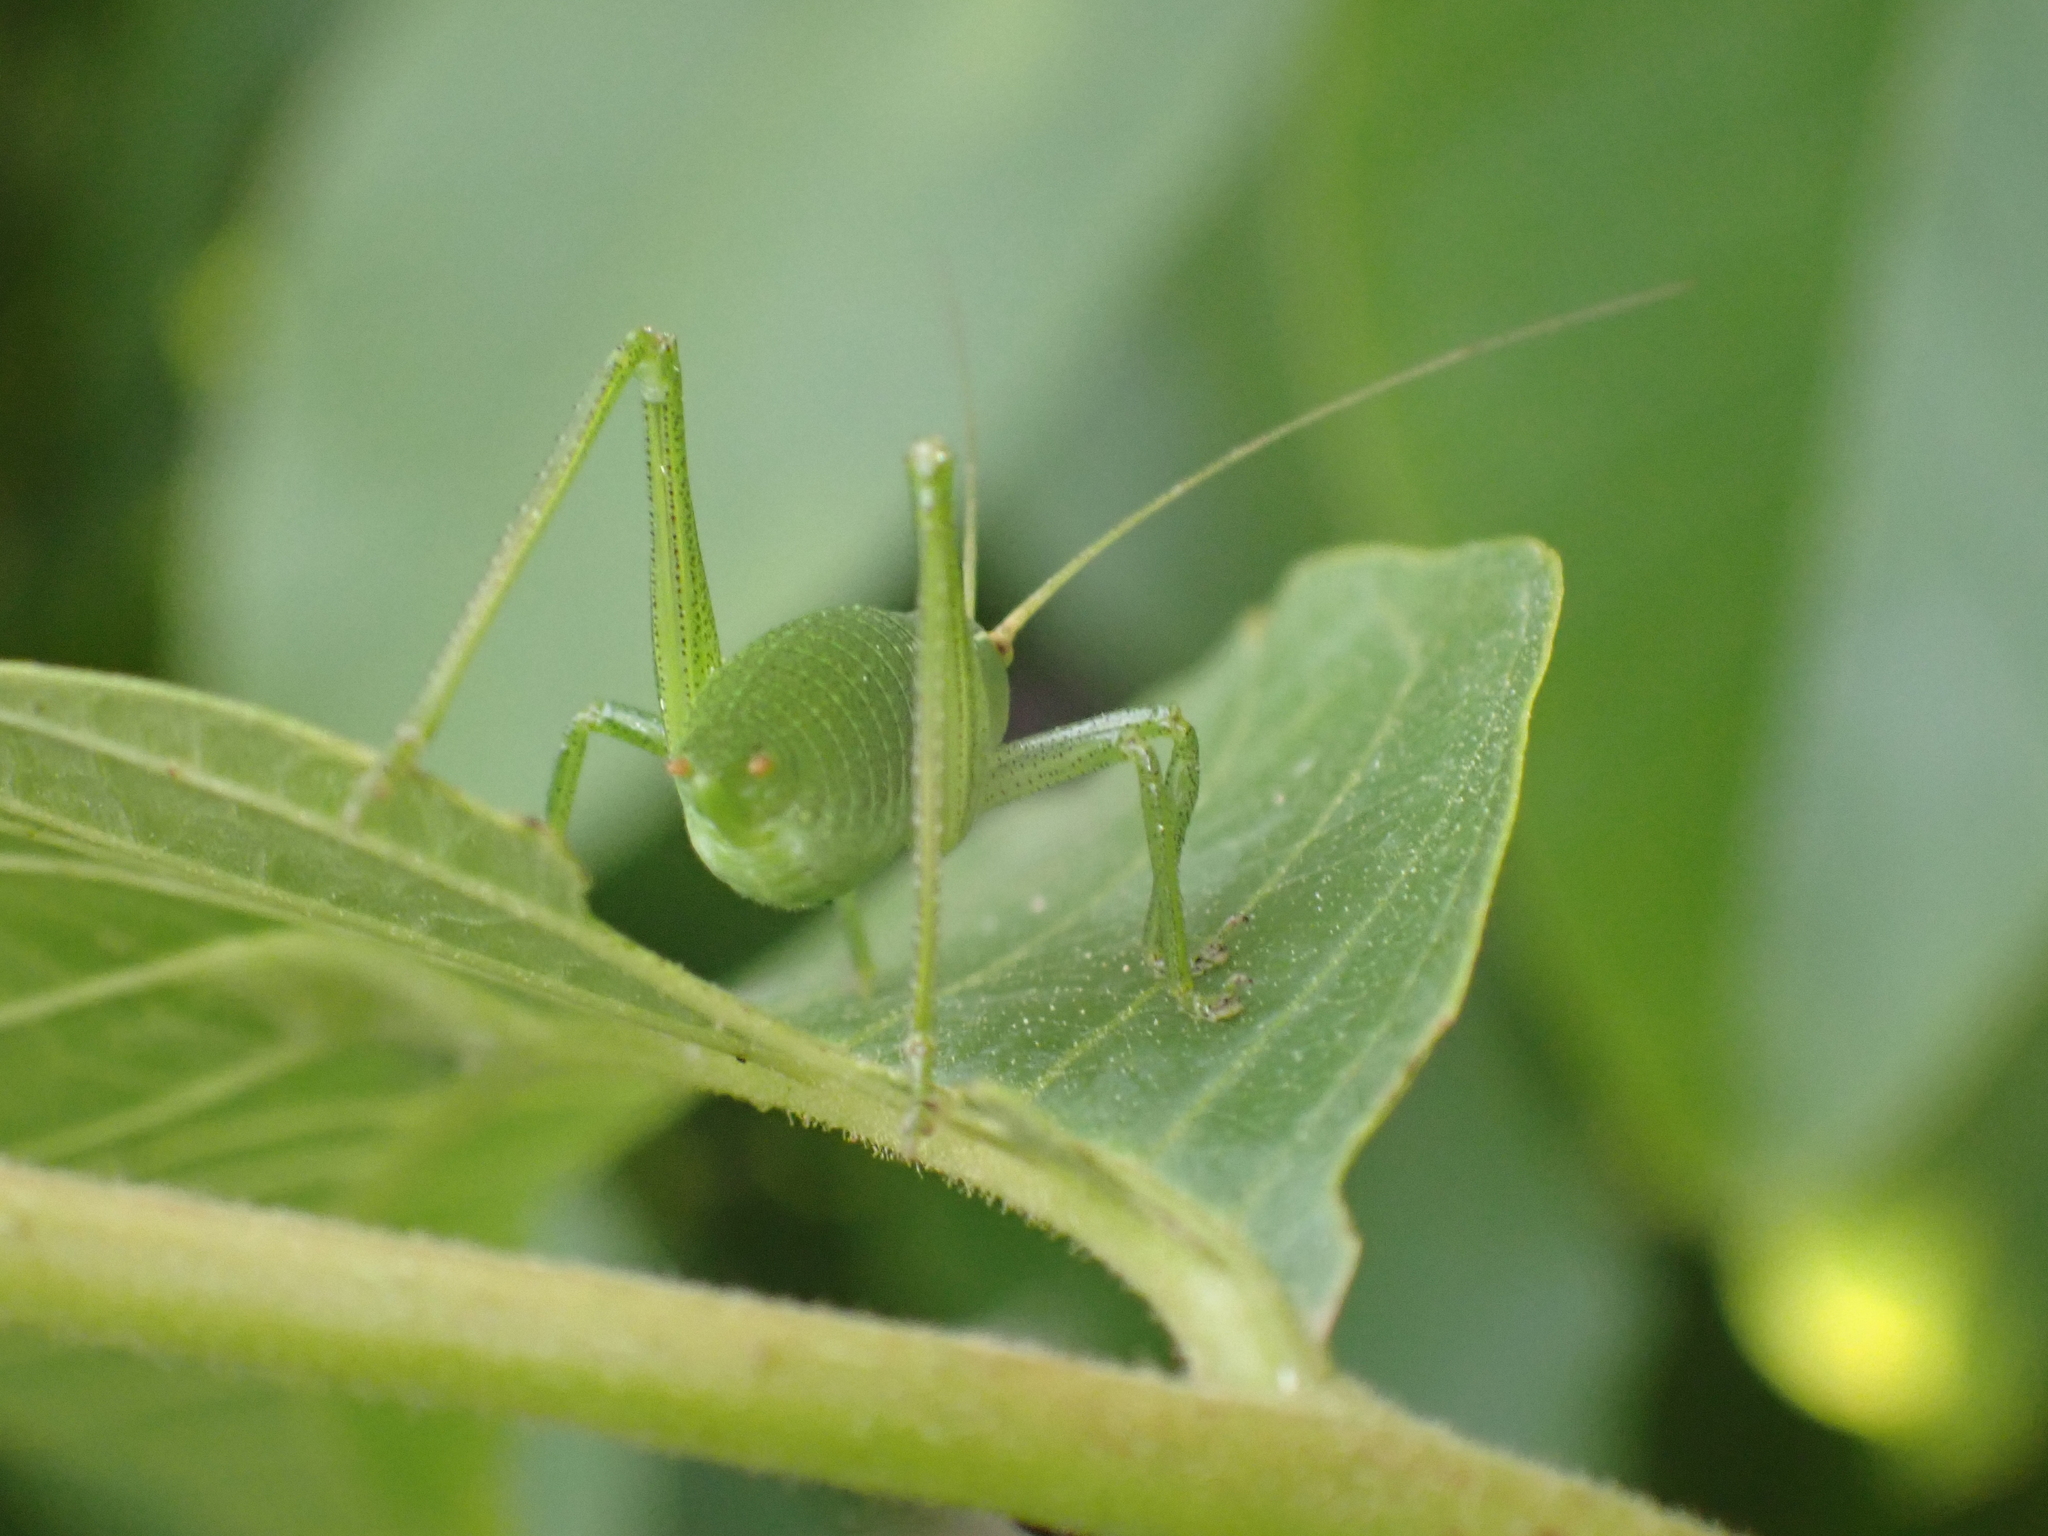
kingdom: Animalia
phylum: Arthropoda
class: Insecta
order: Orthoptera
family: Tettigoniidae
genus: Barbitistes
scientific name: Barbitistes fischeri
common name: Southern saw-tailed bush-cricket
